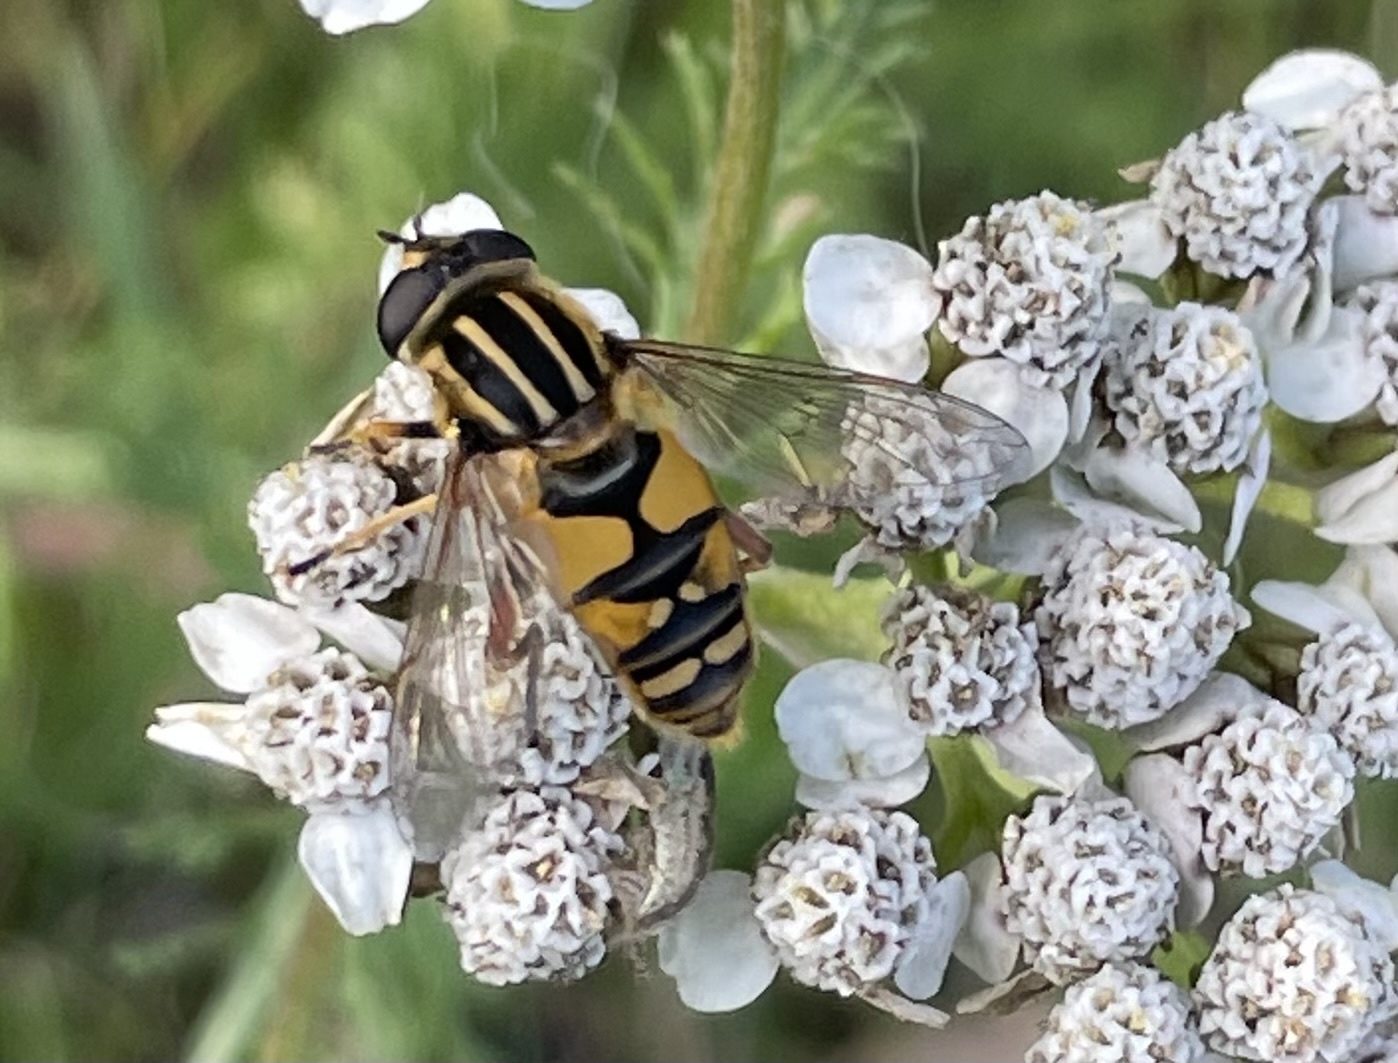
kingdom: Animalia
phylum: Arthropoda
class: Insecta
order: Diptera
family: Syrphidae
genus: Helophilus
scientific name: Helophilus pendulus
